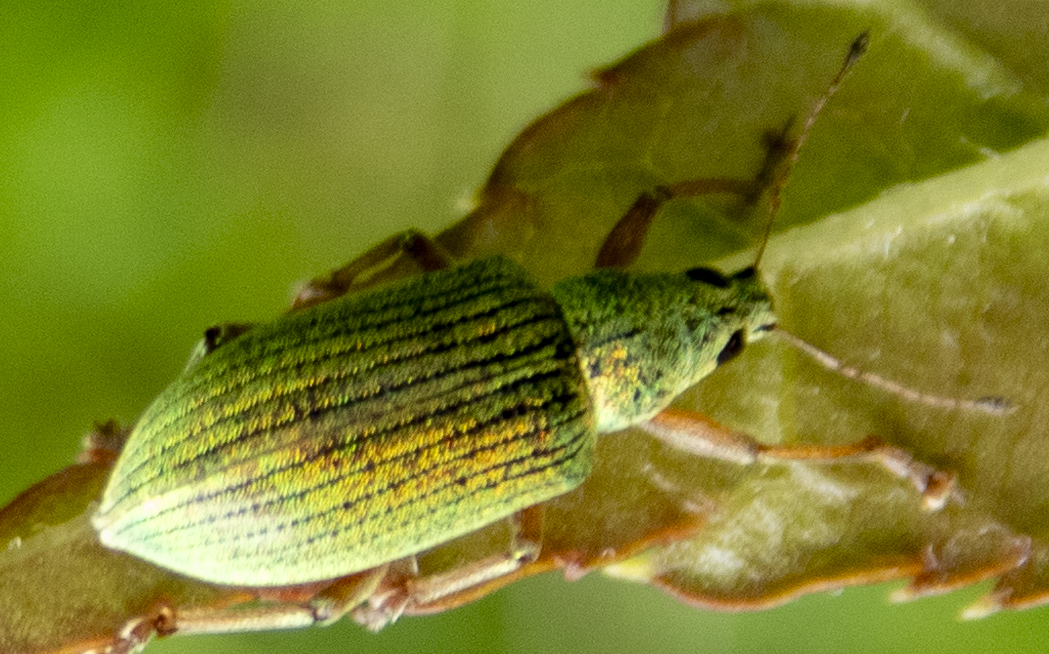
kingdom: Animalia
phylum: Arthropoda
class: Insecta
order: Coleoptera
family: Curculionidae
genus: Polydrusus
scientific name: Polydrusus formosus
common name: Weevil
